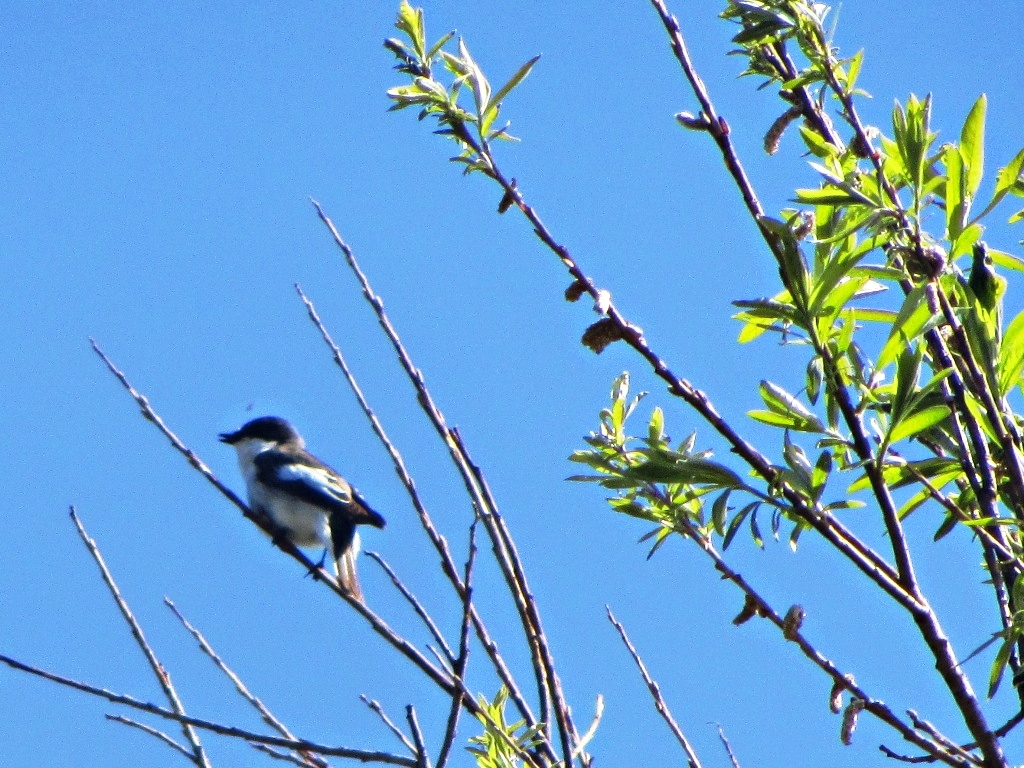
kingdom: Animalia
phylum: Chordata
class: Aves
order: Passeriformes
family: Muscicapidae
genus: Ficedula
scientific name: Ficedula hypoleuca
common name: European pied flycatcher
